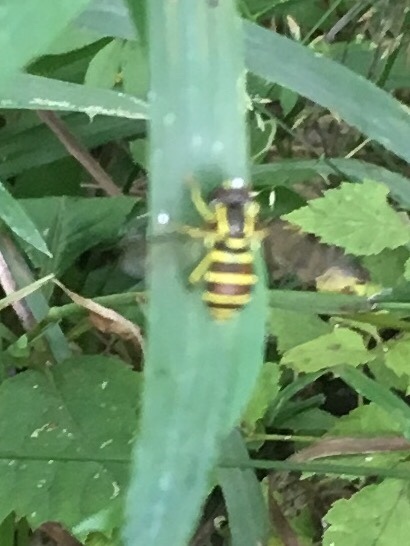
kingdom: Animalia
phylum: Arthropoda
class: Insecta
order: Diptera
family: Syrphidae
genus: Philhelius
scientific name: Philhelius flavipes
